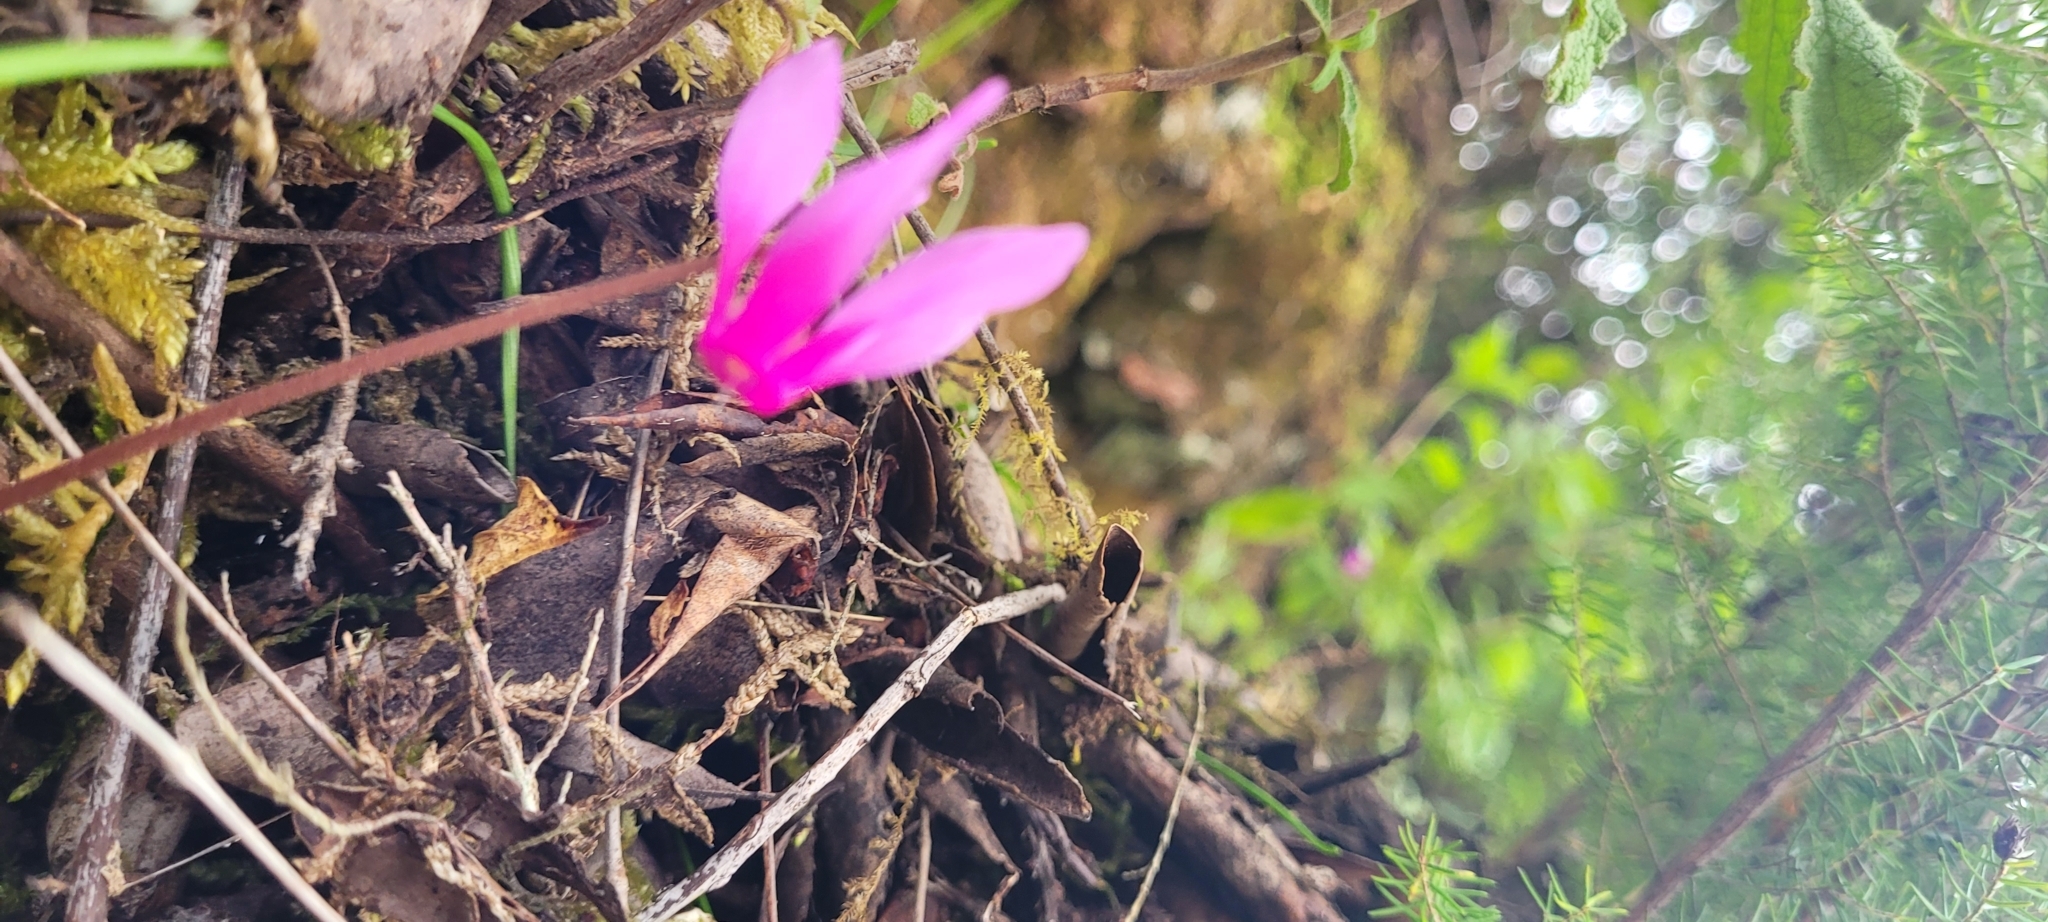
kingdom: Plantae
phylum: Tracheophyta
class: Magnoliopsida
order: Ericales
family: Primulaceae
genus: Cyclamen
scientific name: Cyclamen repandum
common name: Spring sowbread
